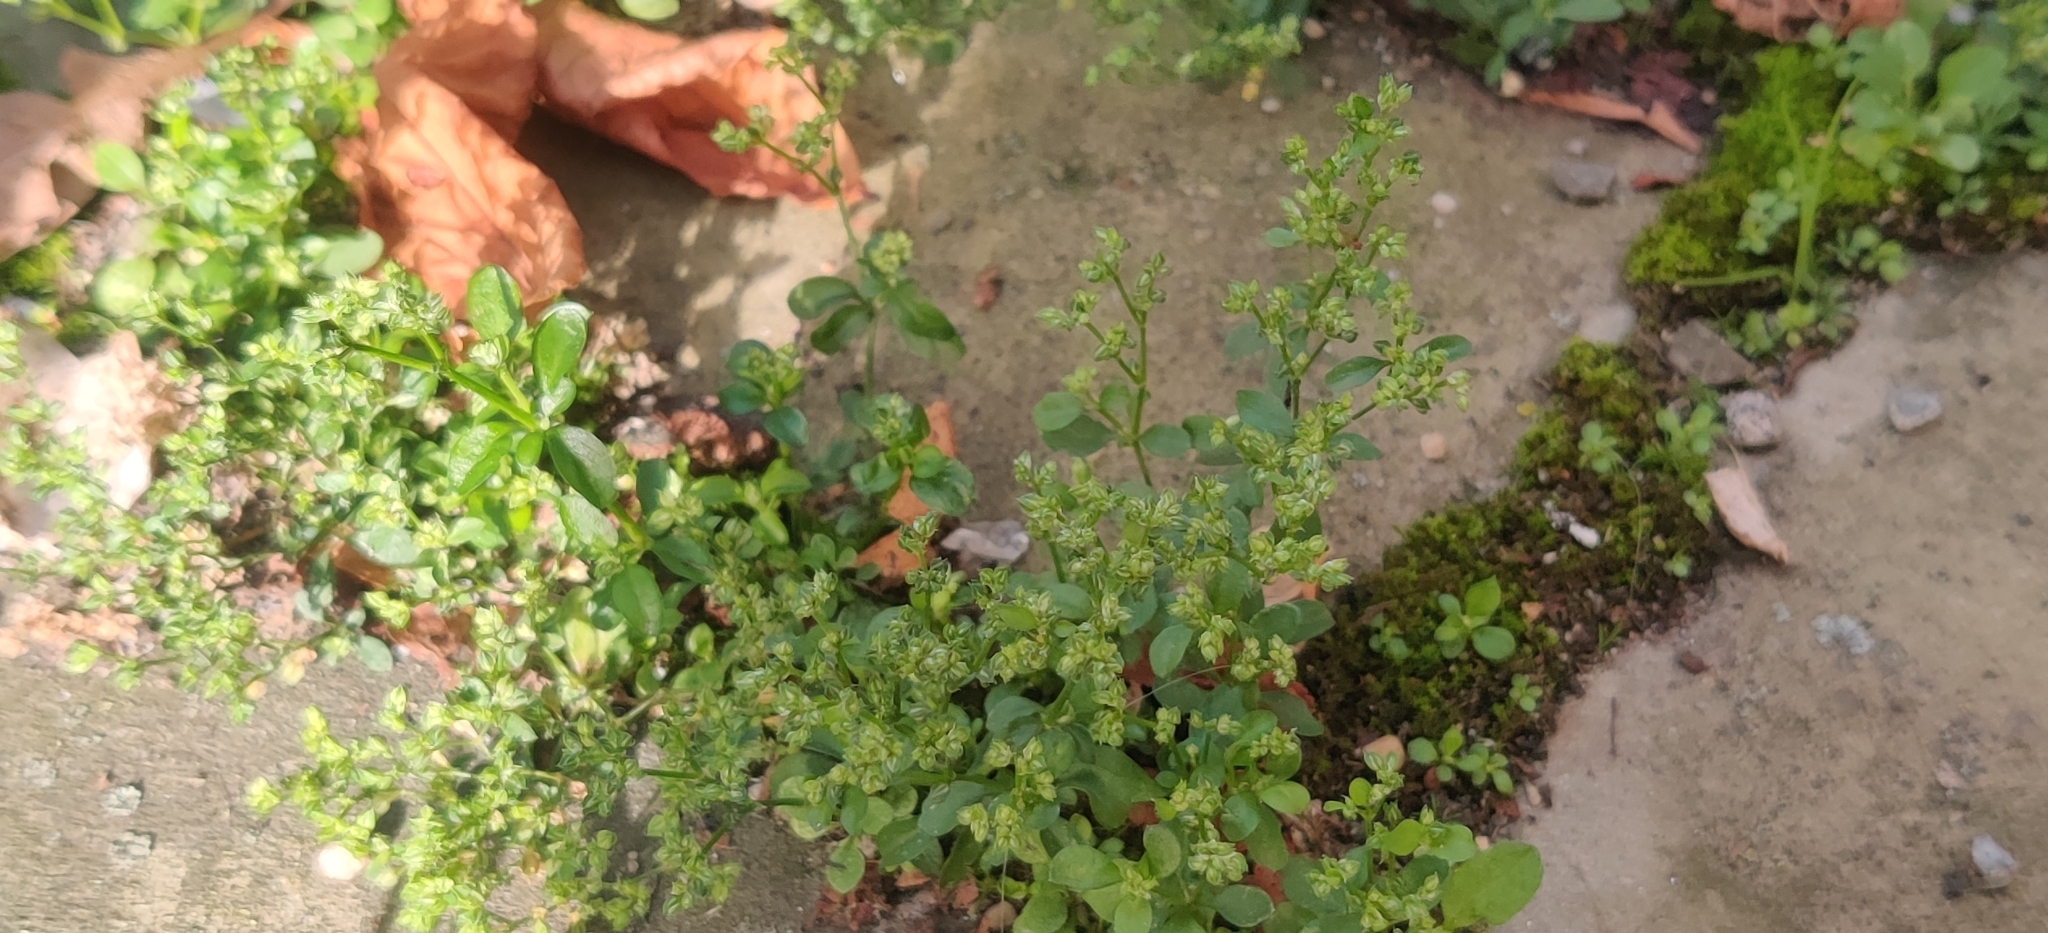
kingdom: Plantae
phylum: Tracheophyta
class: Magnoliopsida
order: Caryophyllales
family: Caryophyllaceae
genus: Polycarpon
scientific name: Polycarpon tetraphyllum
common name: Four-leaved all-seed
